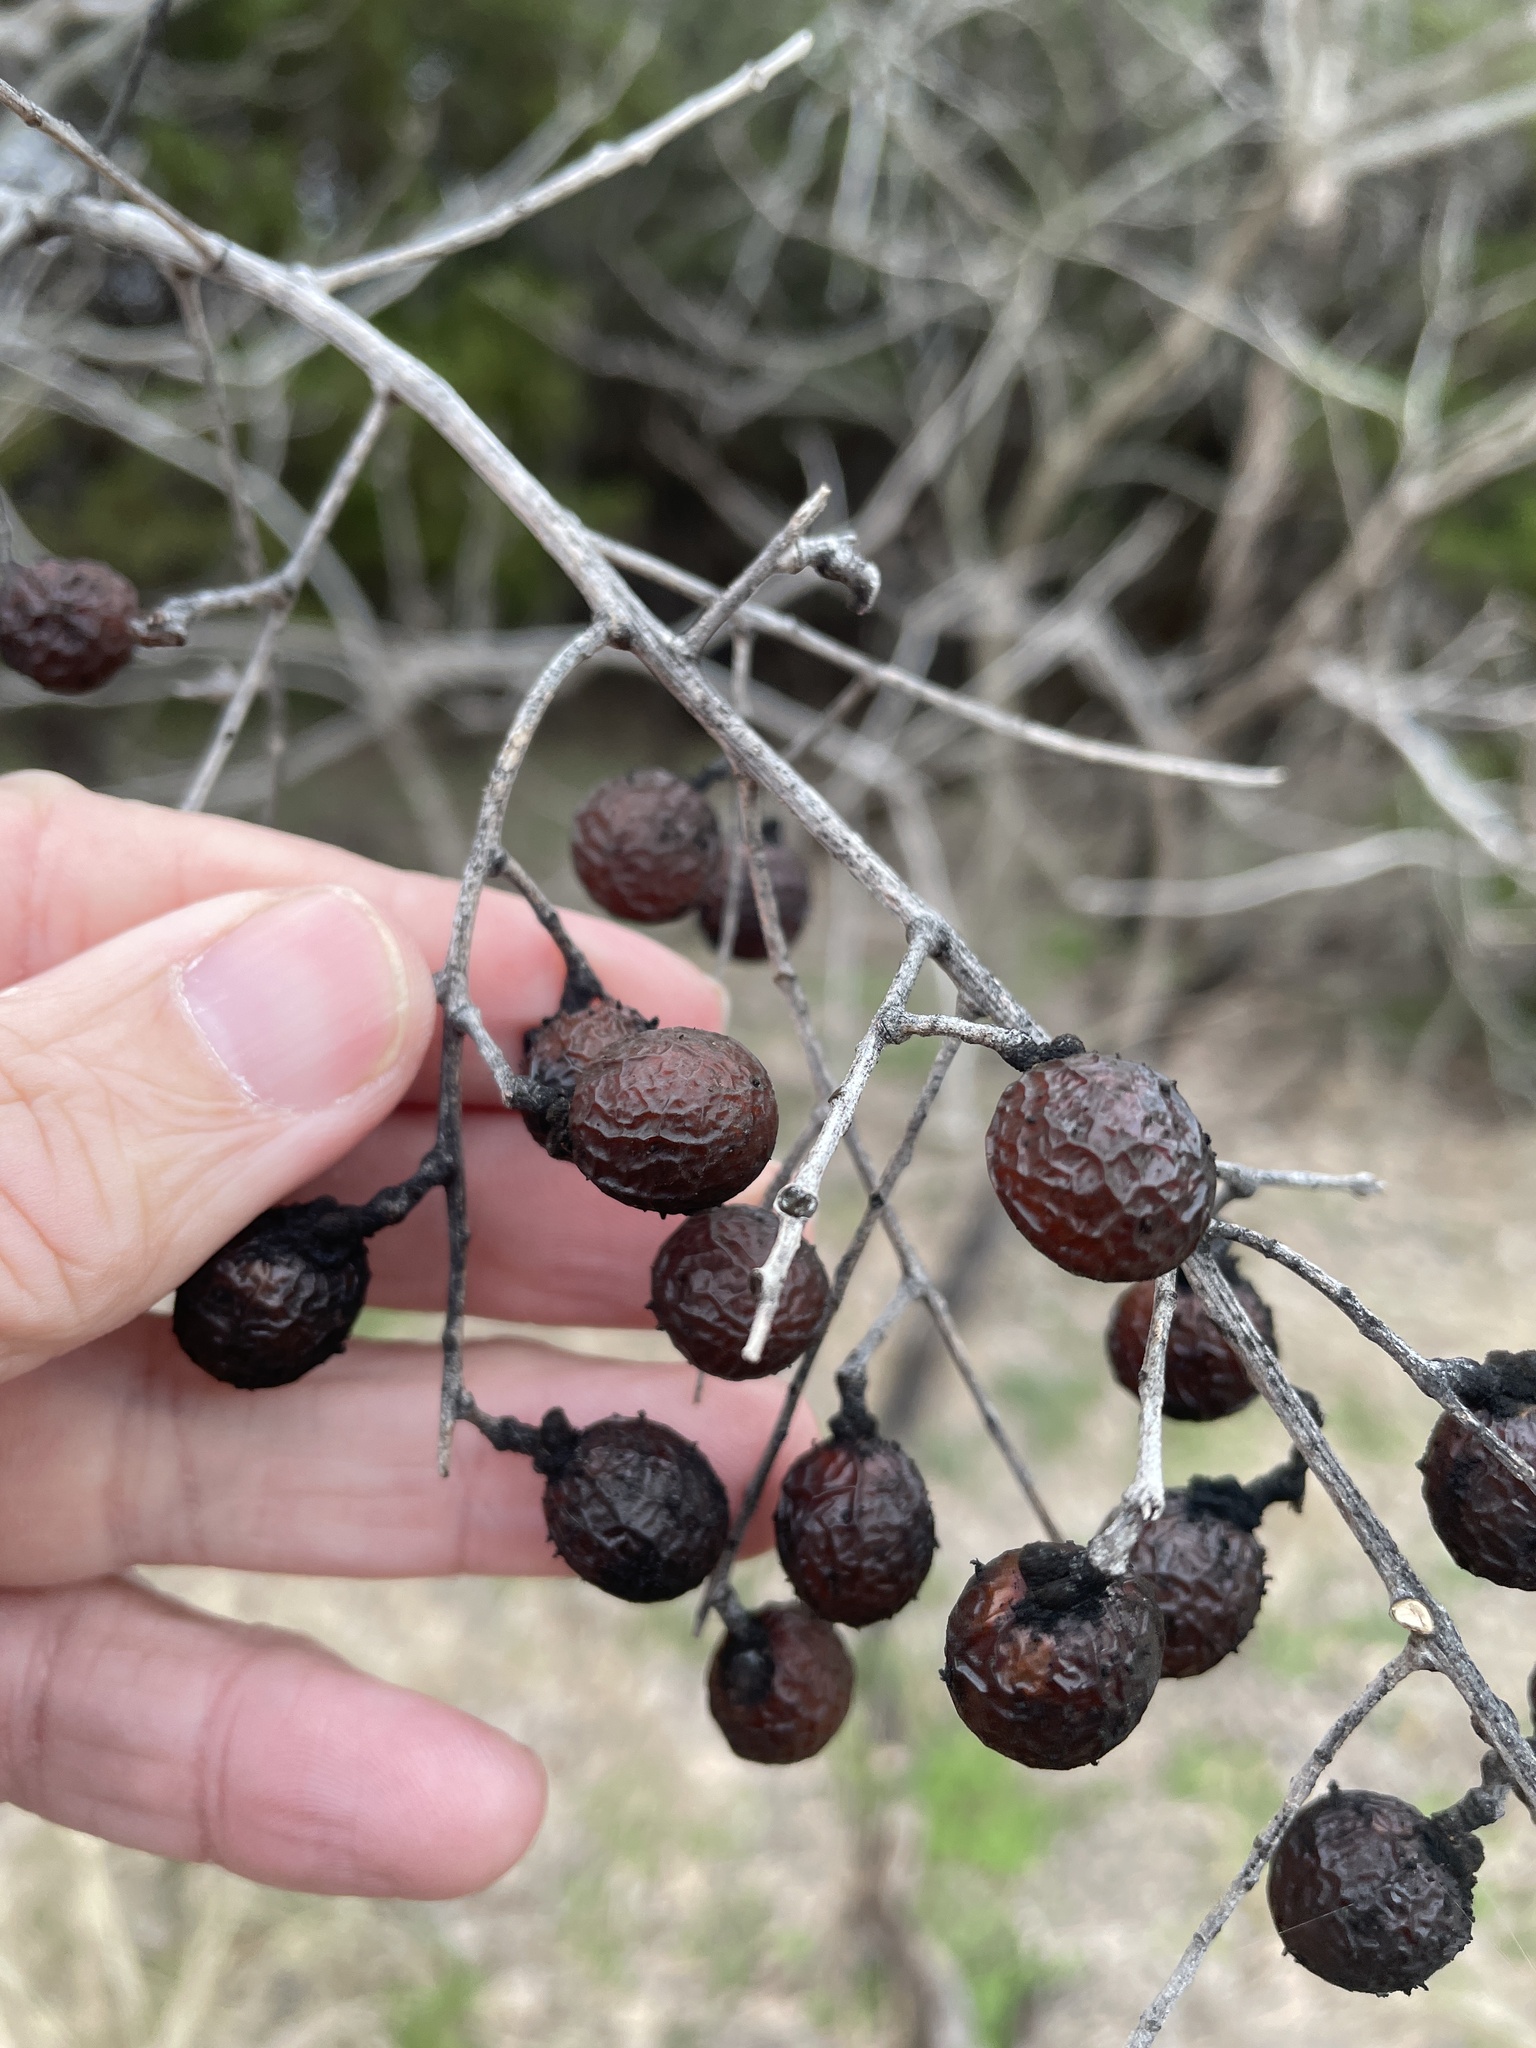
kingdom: Plantae
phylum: Tracheophyta
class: Magnoliopsida
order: Sapindales
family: Sapindaceae
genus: Sapindus
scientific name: Sapindus drummondii
